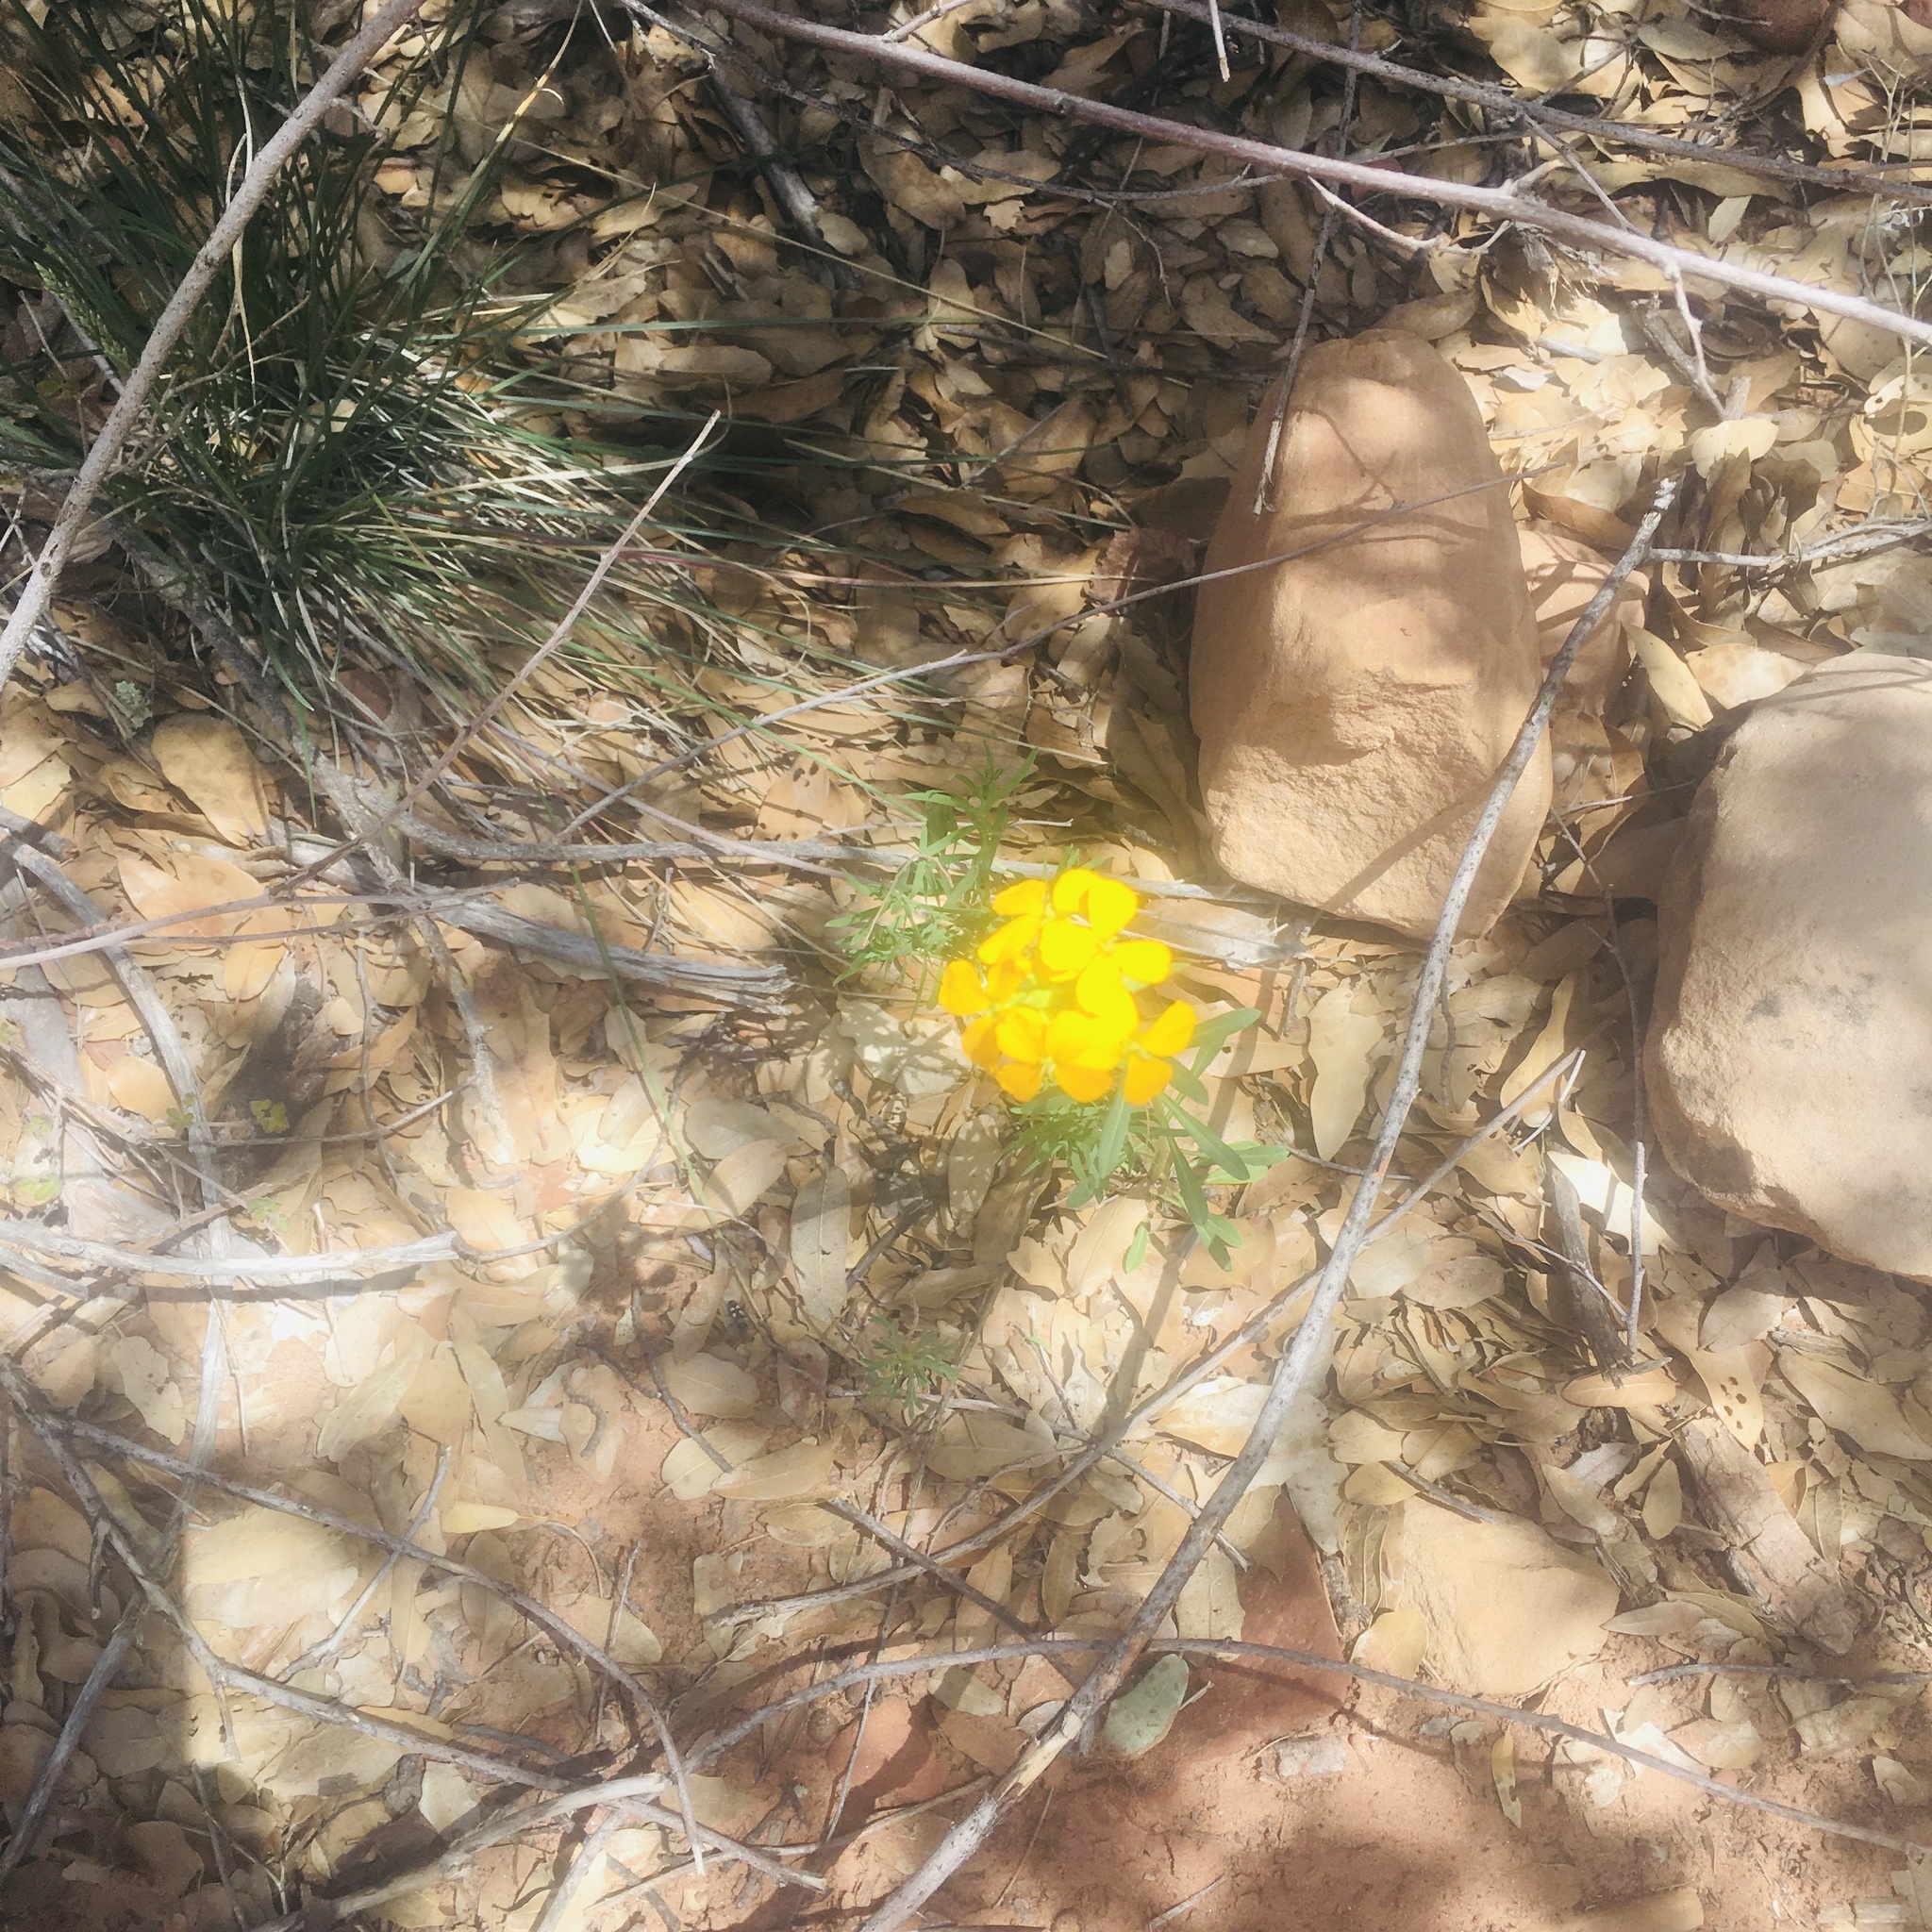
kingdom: Plantae
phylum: Tracheophyta
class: Magnoliopsida
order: Brassicales
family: Brassicaceae
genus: Erysimum
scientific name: Erysimum capitatum
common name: Western wallflower
